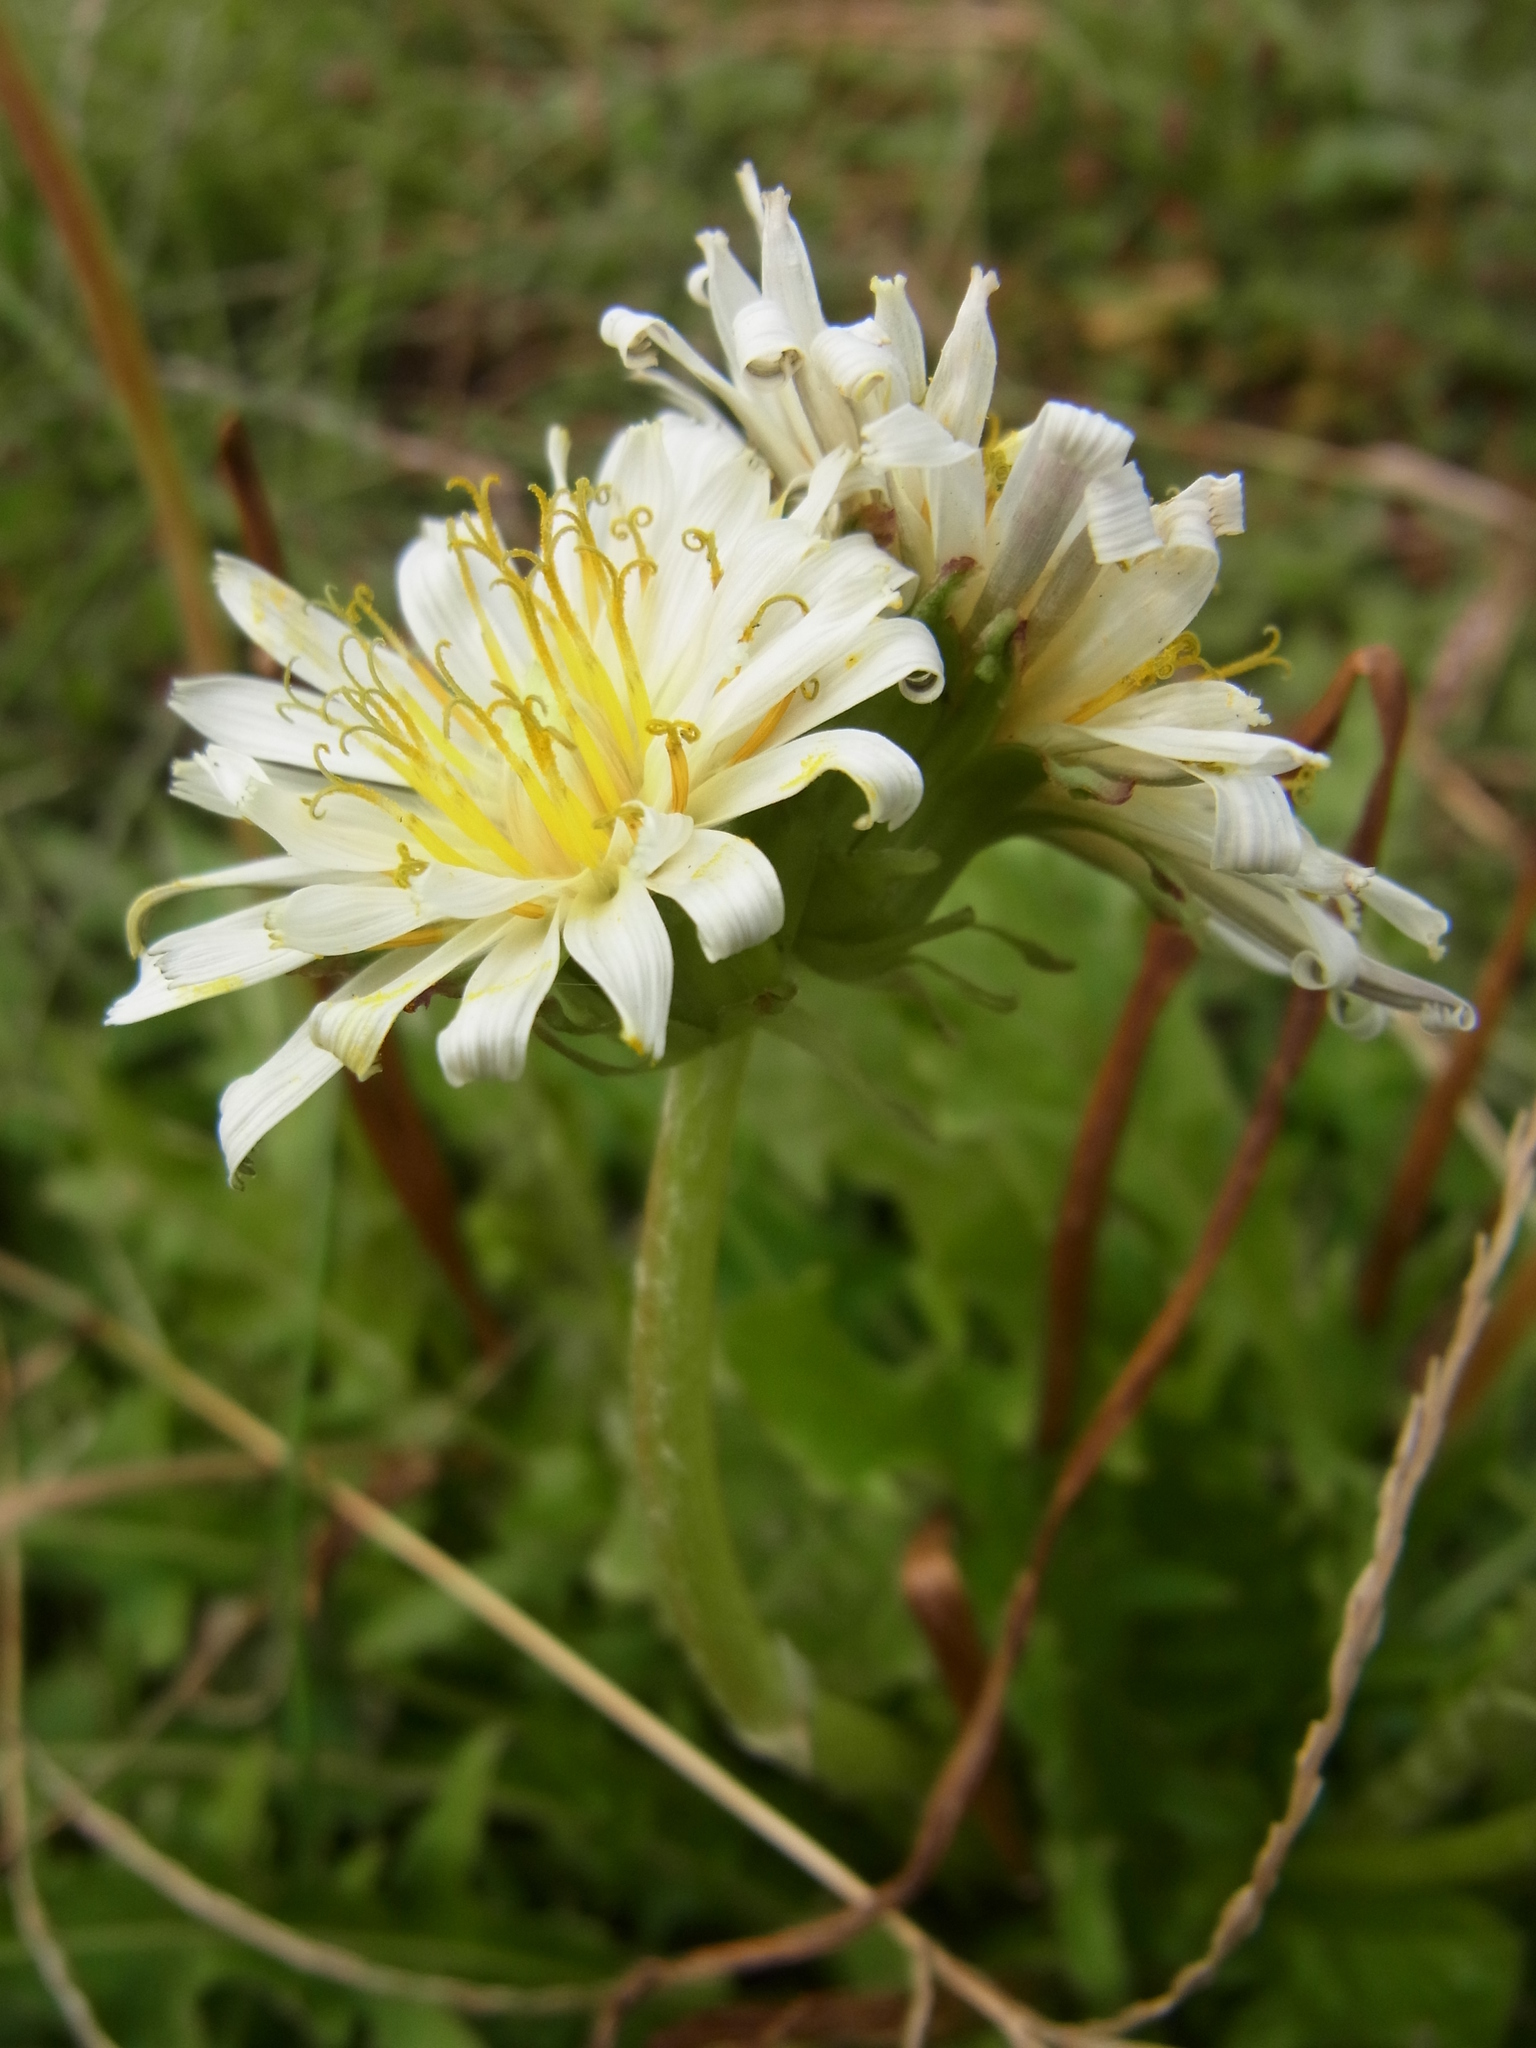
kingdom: Plantae
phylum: Tracheophyta
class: Magnoliopsida
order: Asterales
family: Asteraceae
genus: Taraxacum
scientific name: Taraxacum albidum
